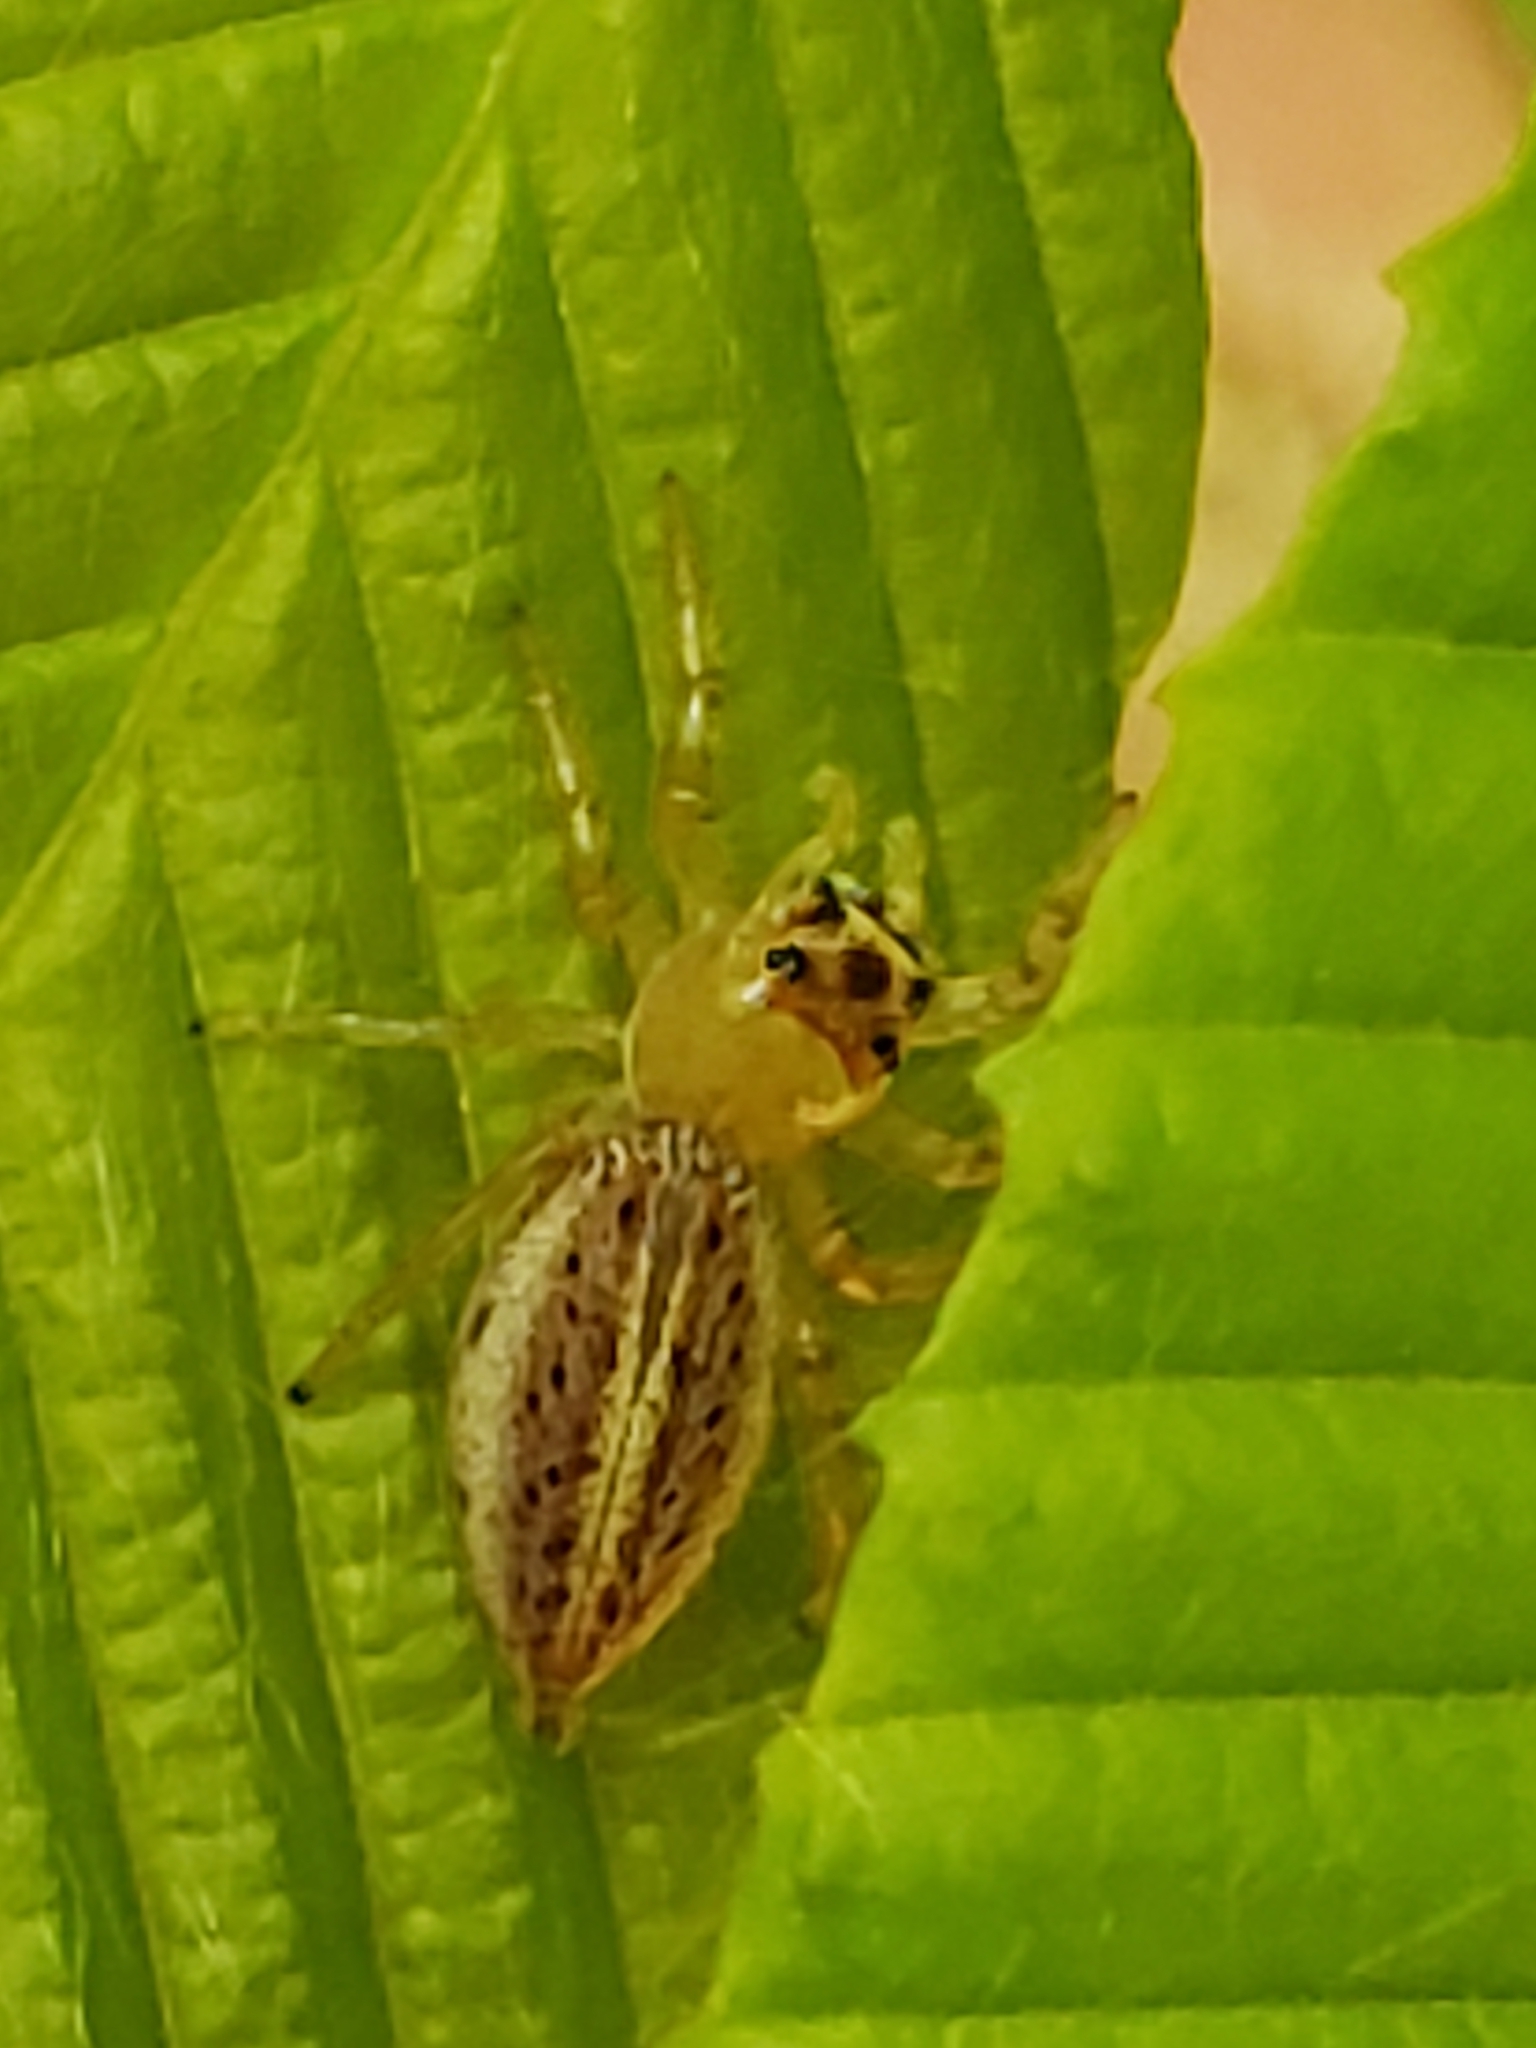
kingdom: Animalia
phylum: Arthropoda
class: Arachnida
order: Araneae
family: Salticidae
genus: Colonus
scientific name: Colonus sylvanus
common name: Jumping spiders
